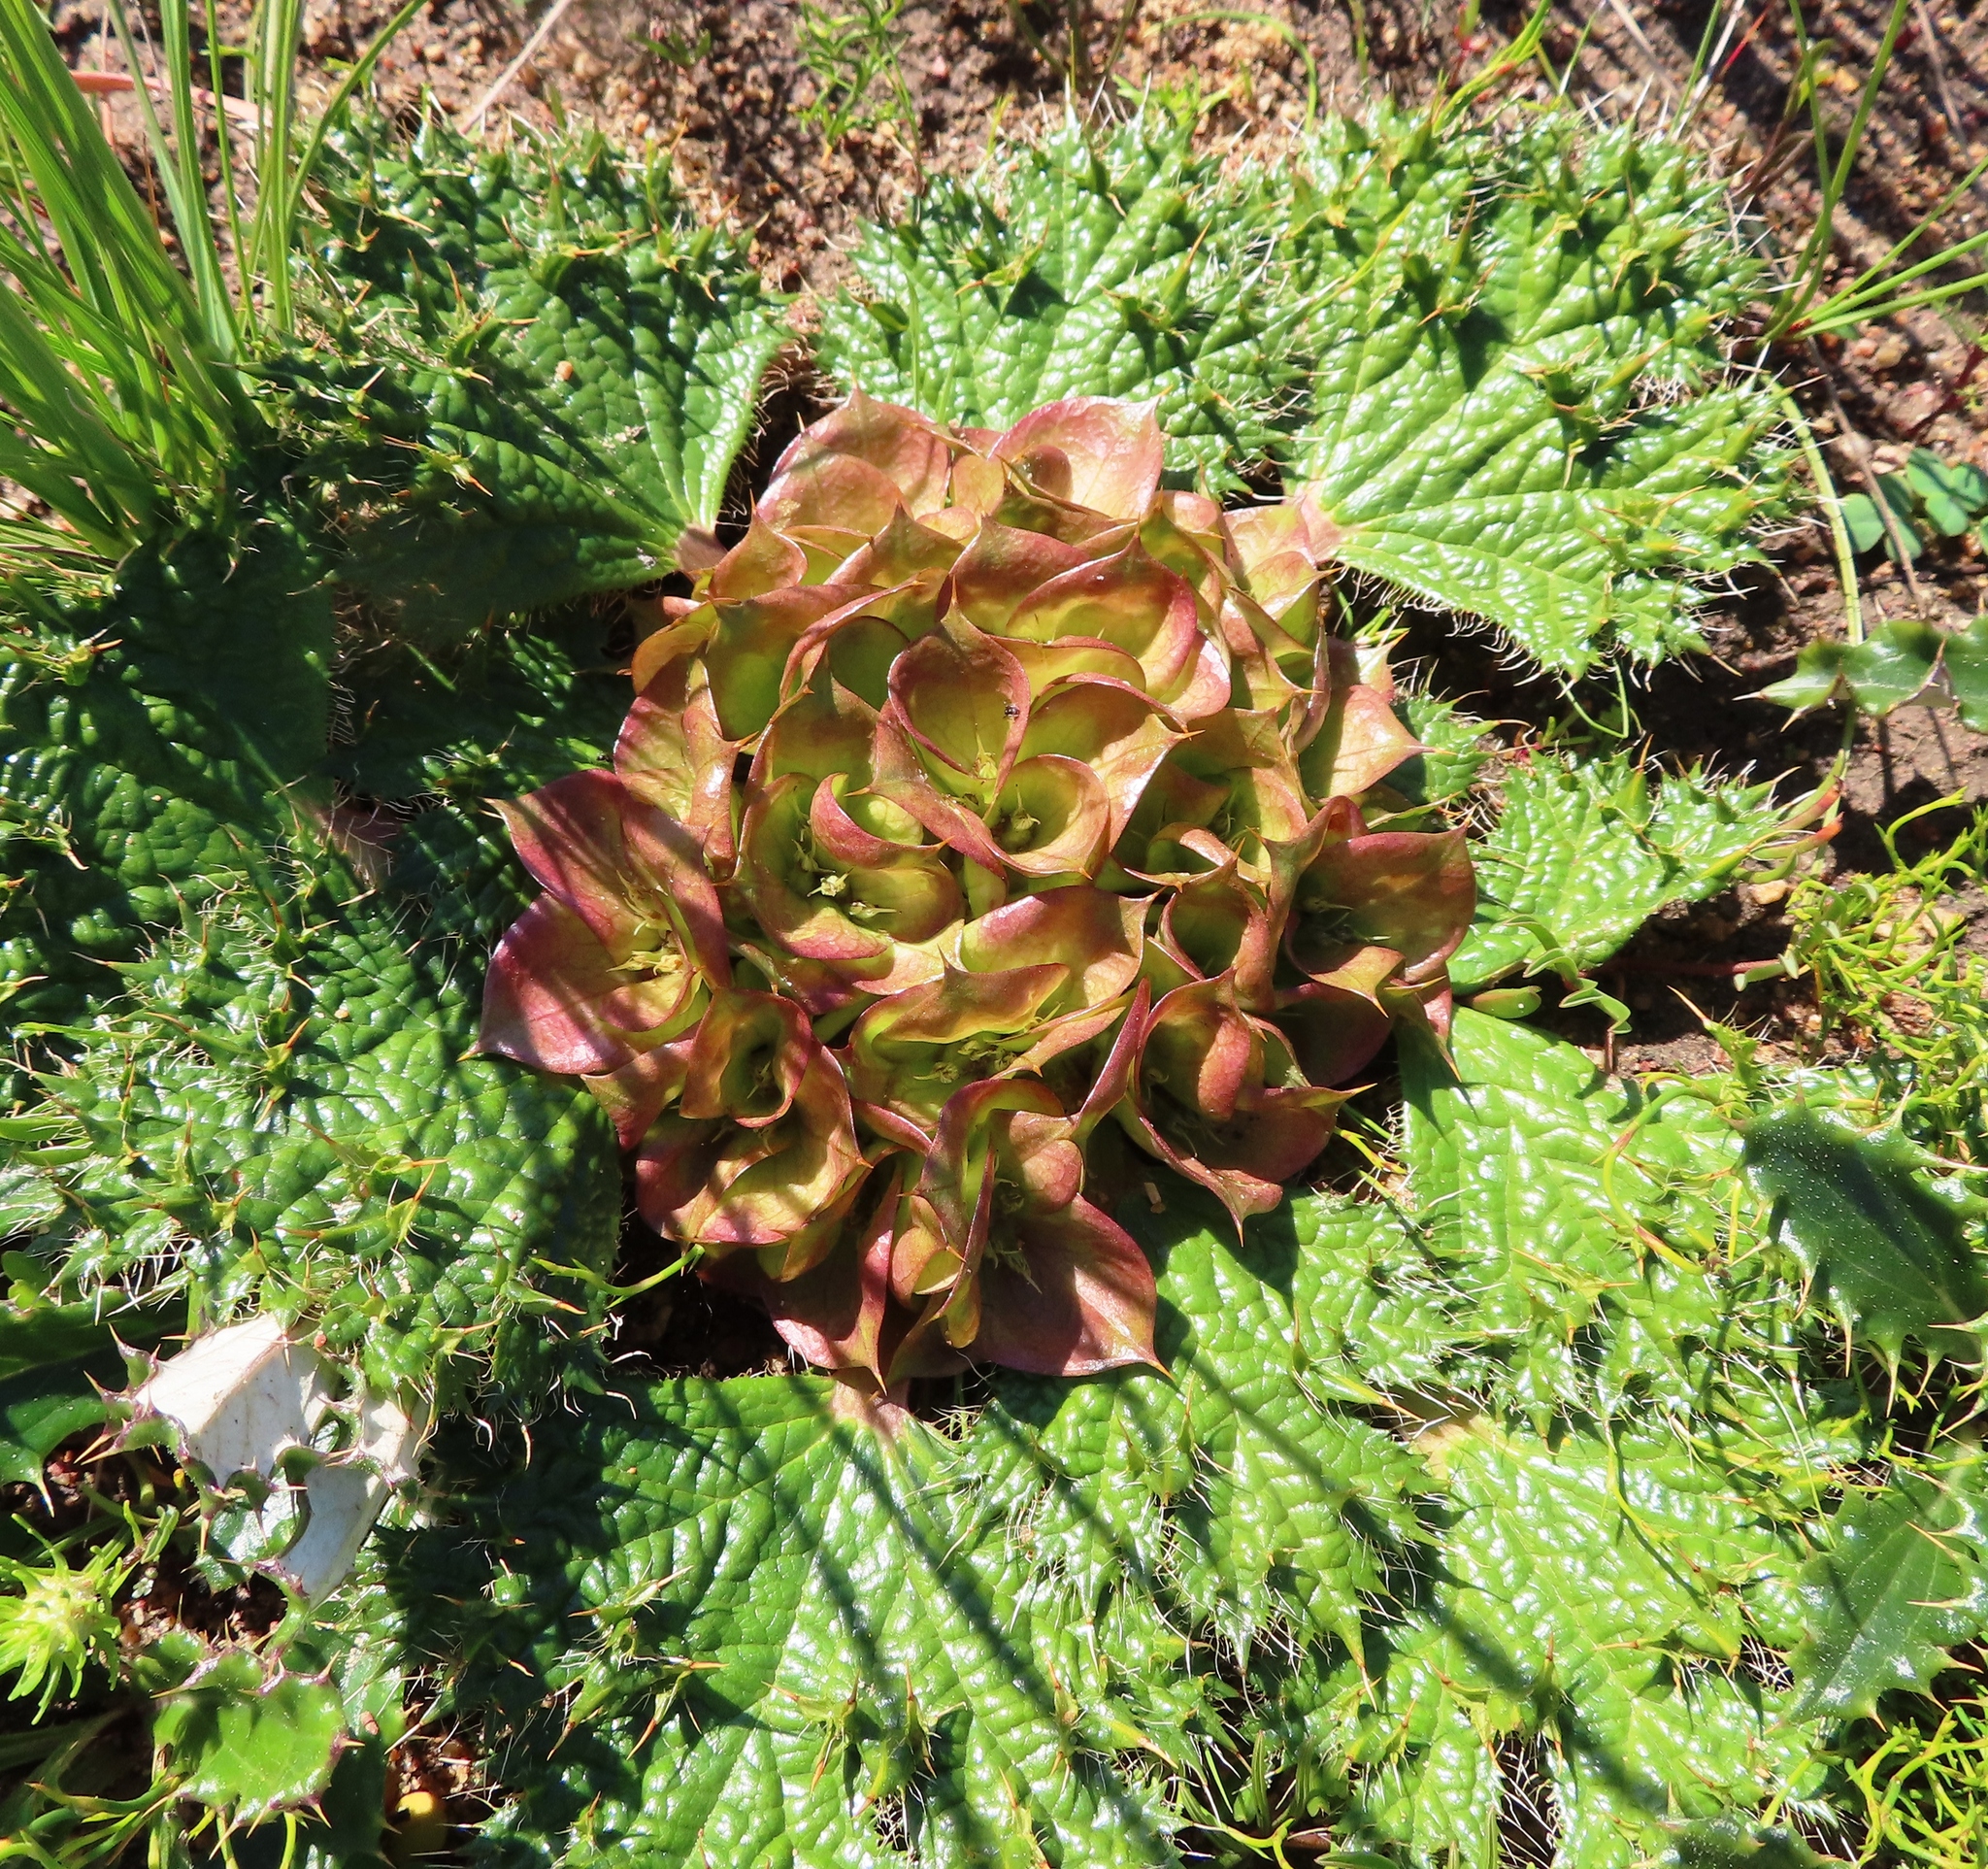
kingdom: Plantae
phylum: Tracheophyta
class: Magnoliopsida
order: Apiales
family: Apiaceae
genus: Arctopus
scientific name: Arctopus monacanthus
